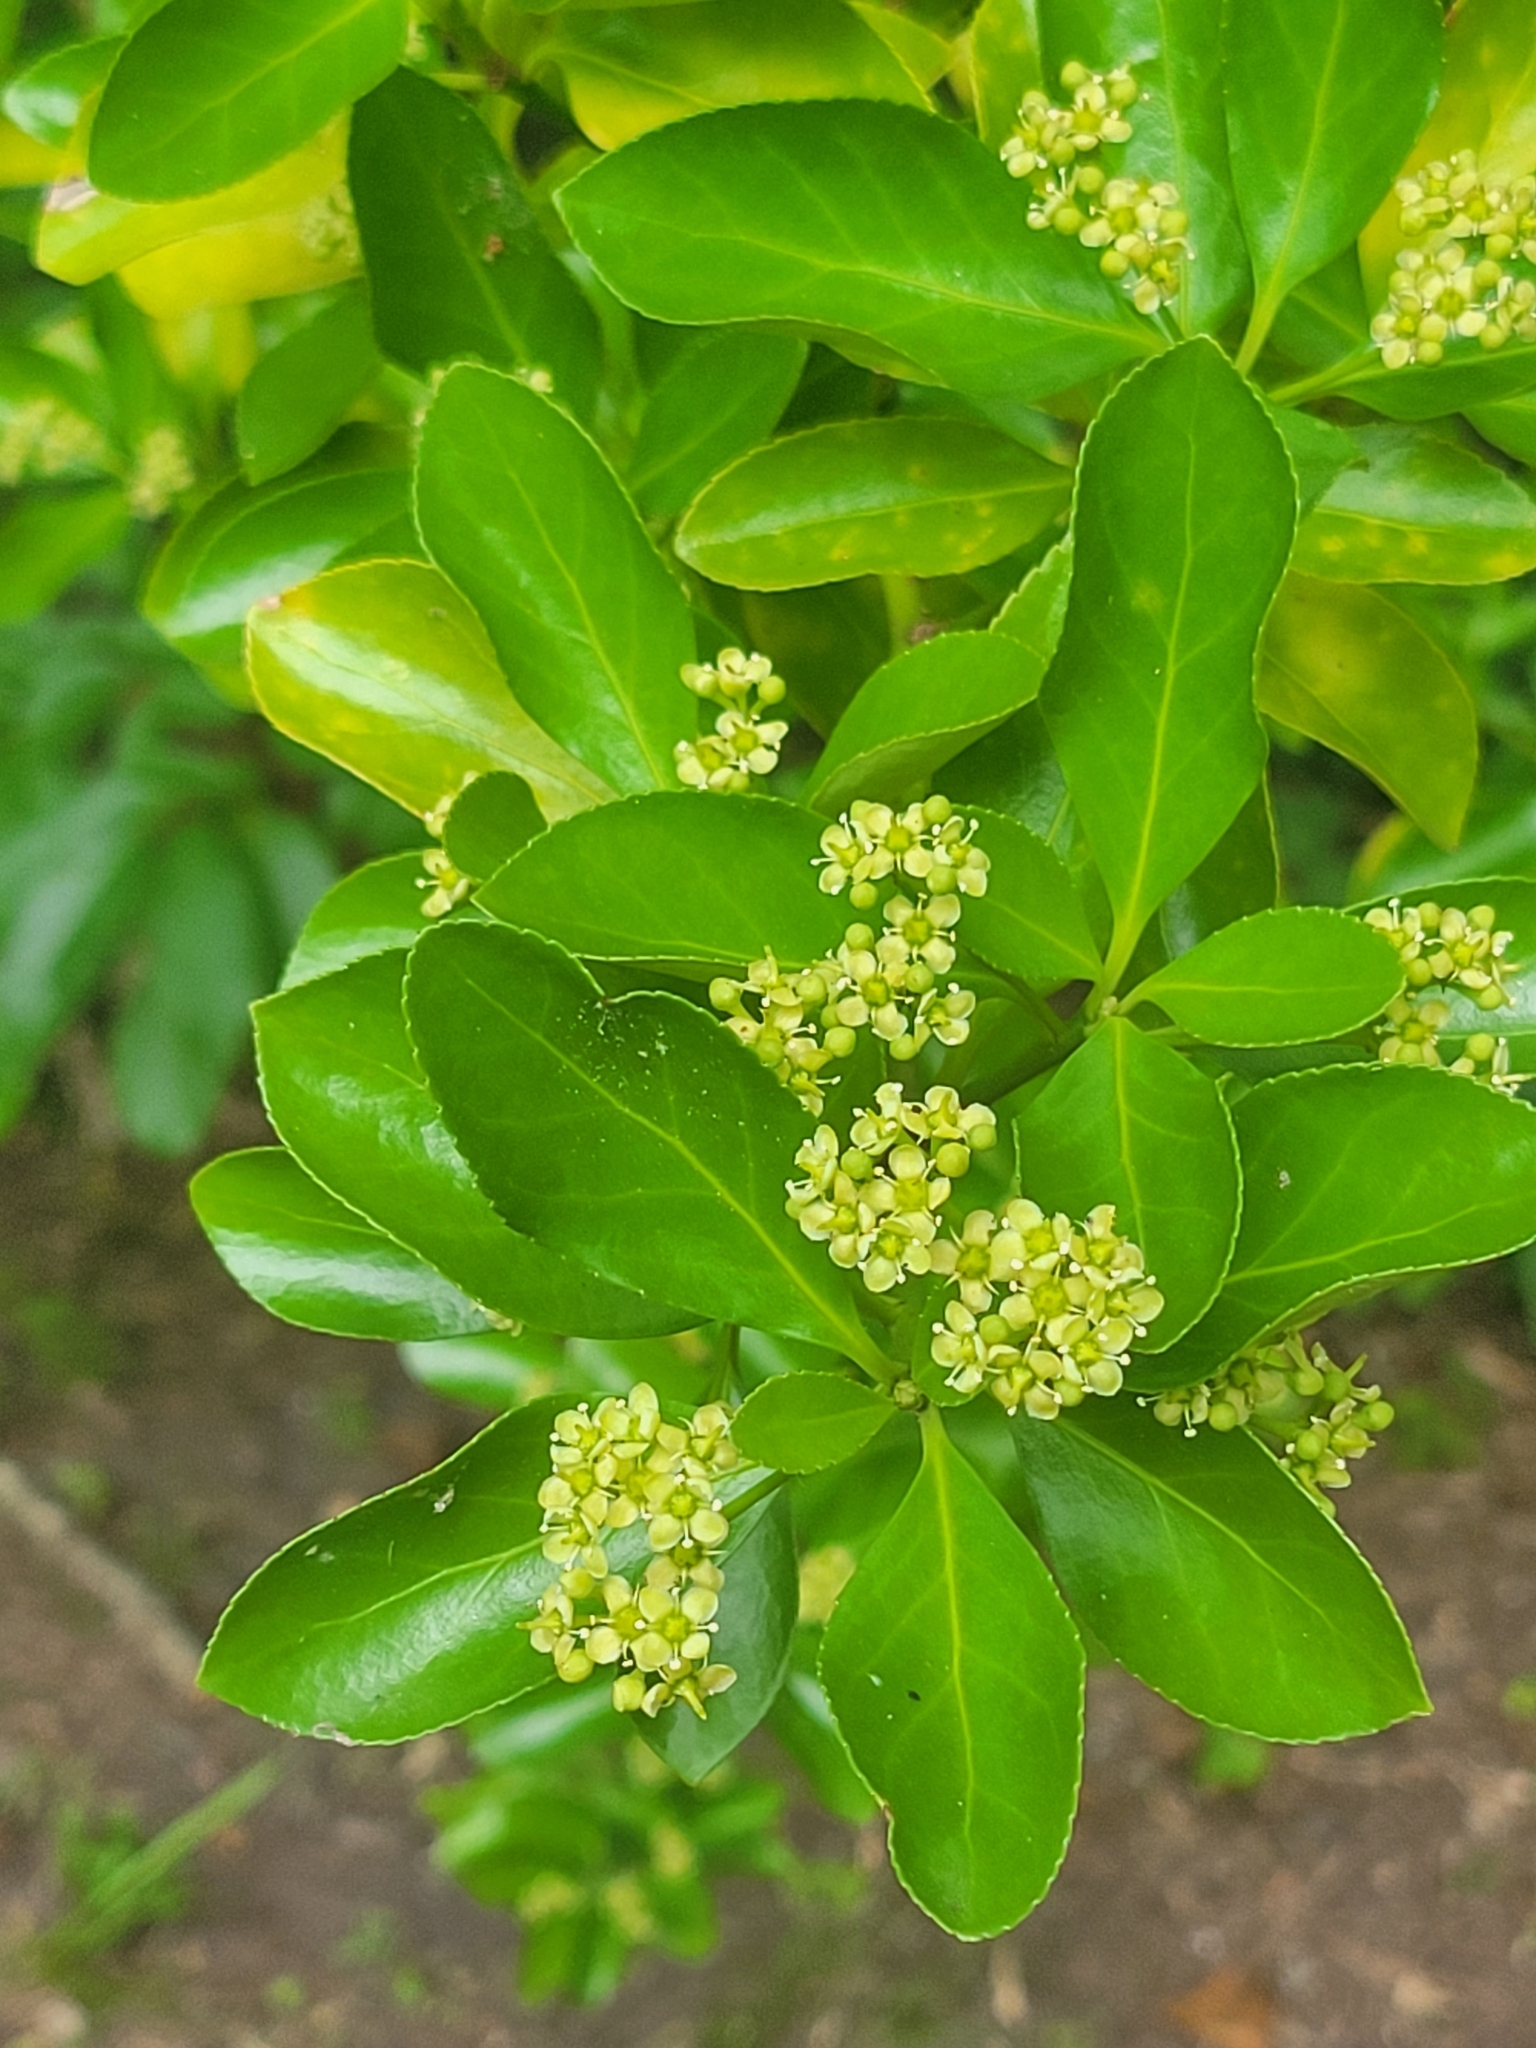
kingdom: Plantae
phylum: Tracheophyta
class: Magnoliopsida
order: Celastrales
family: Celastraceae
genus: Euonymus
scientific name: Euonymus japonicus
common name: Japanese spindletree
